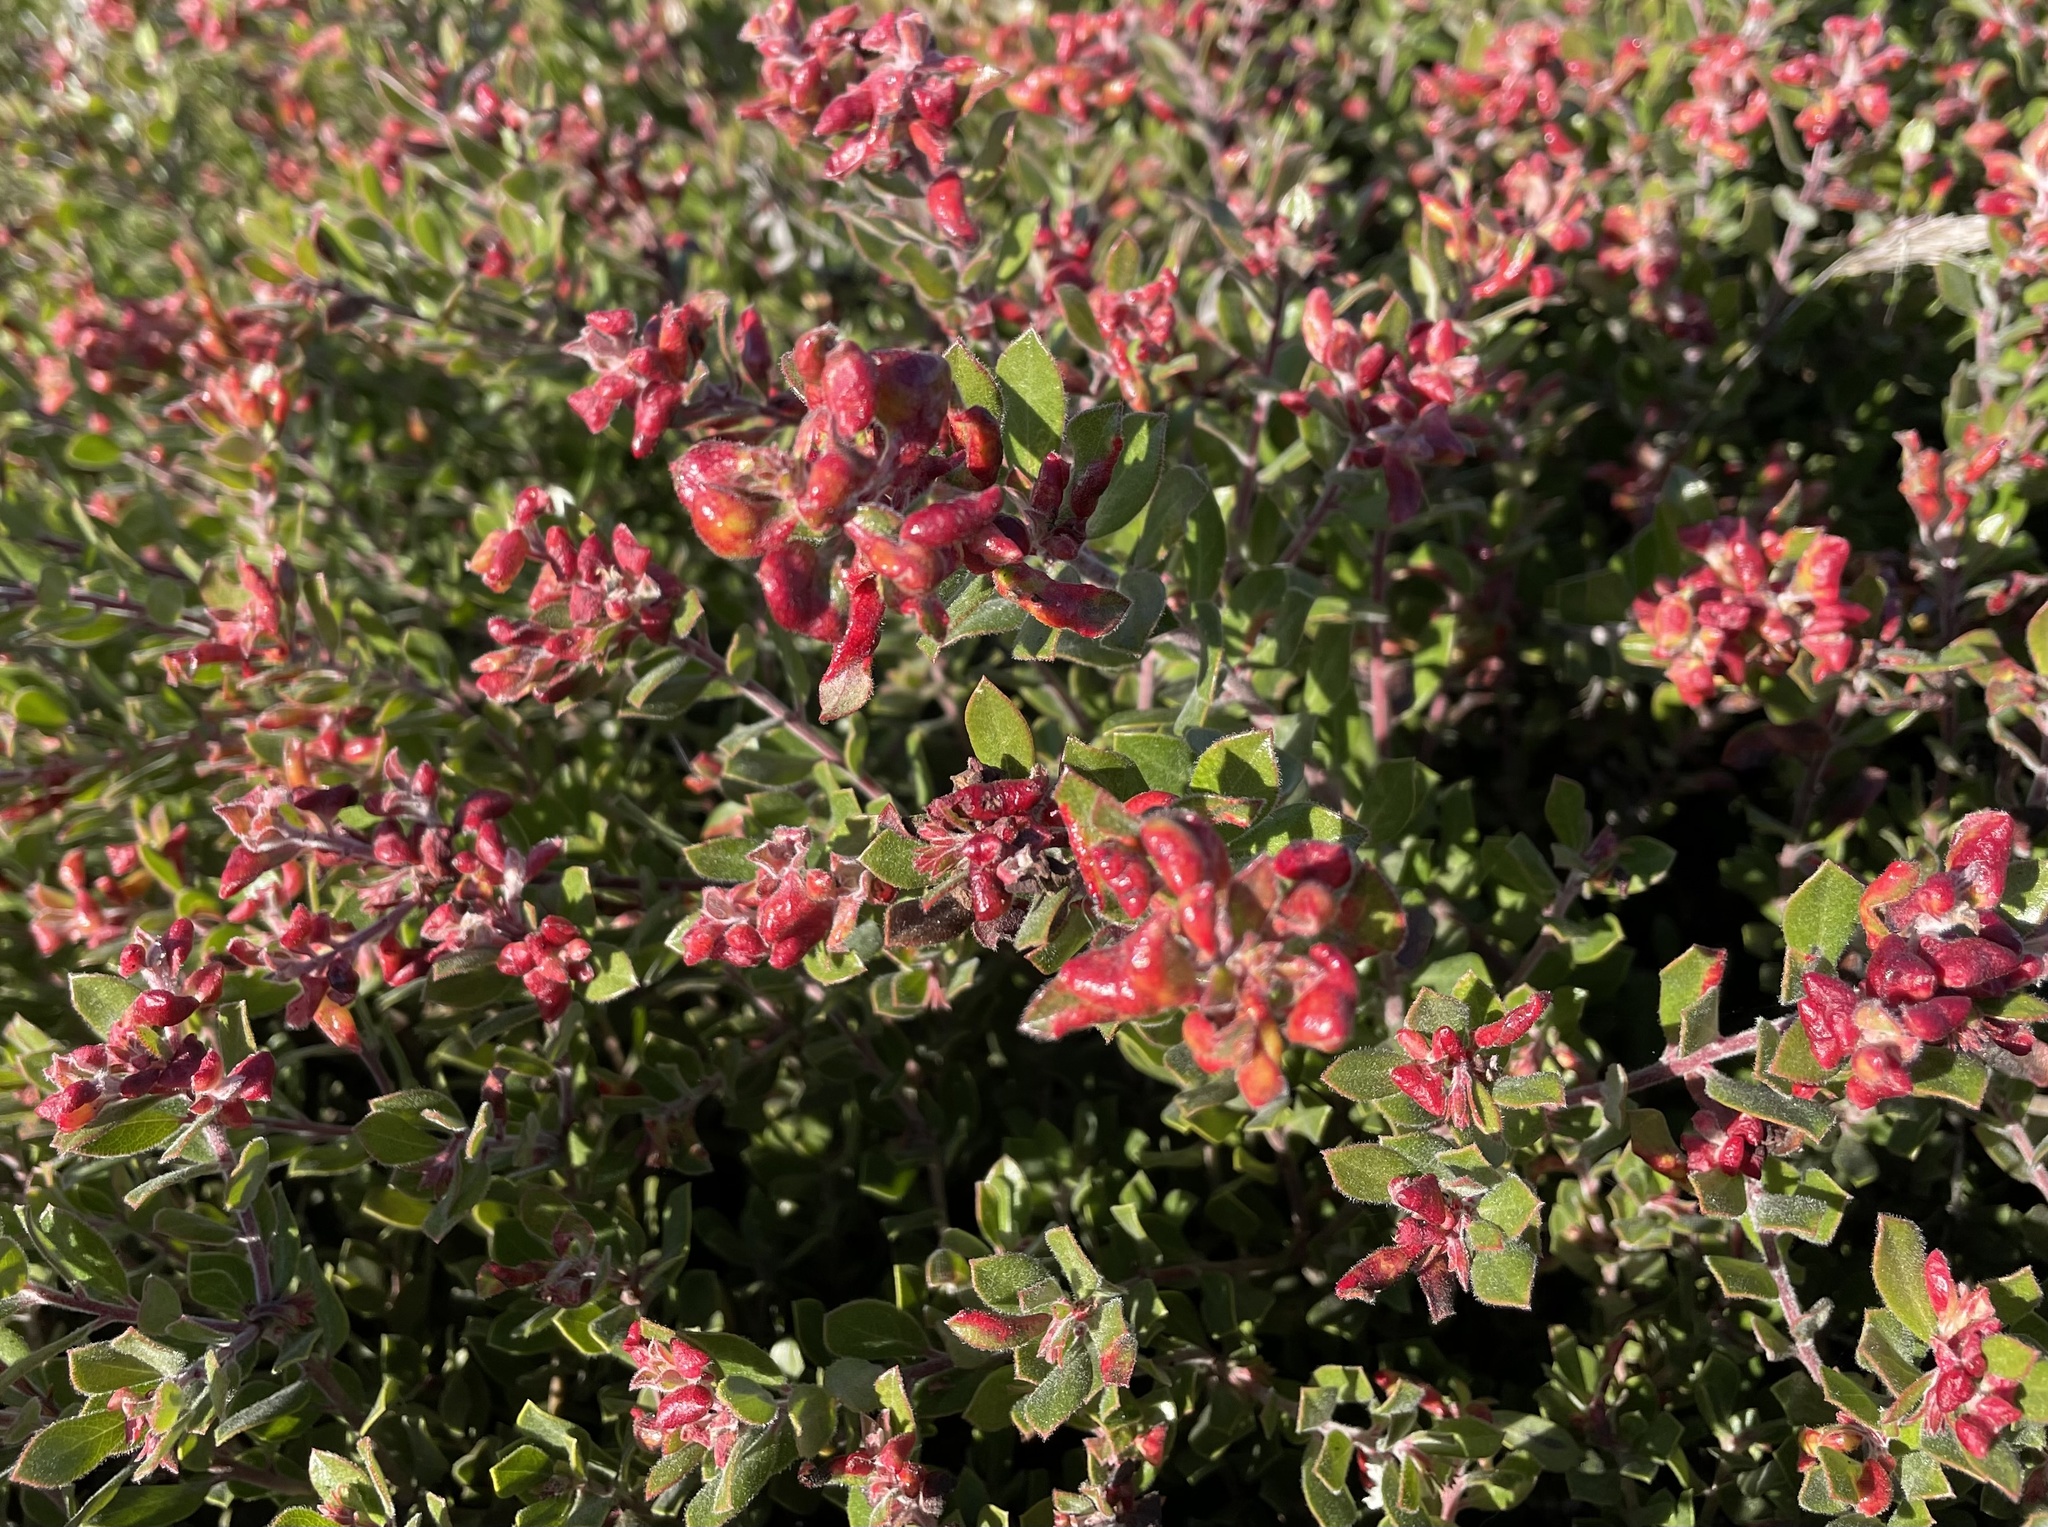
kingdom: Animalia
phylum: Arthropoda
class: Insecta
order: Hemiptera
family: Aphididae
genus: Tamalia
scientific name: Tamalia coweni
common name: Manzanita leafgall aphid
